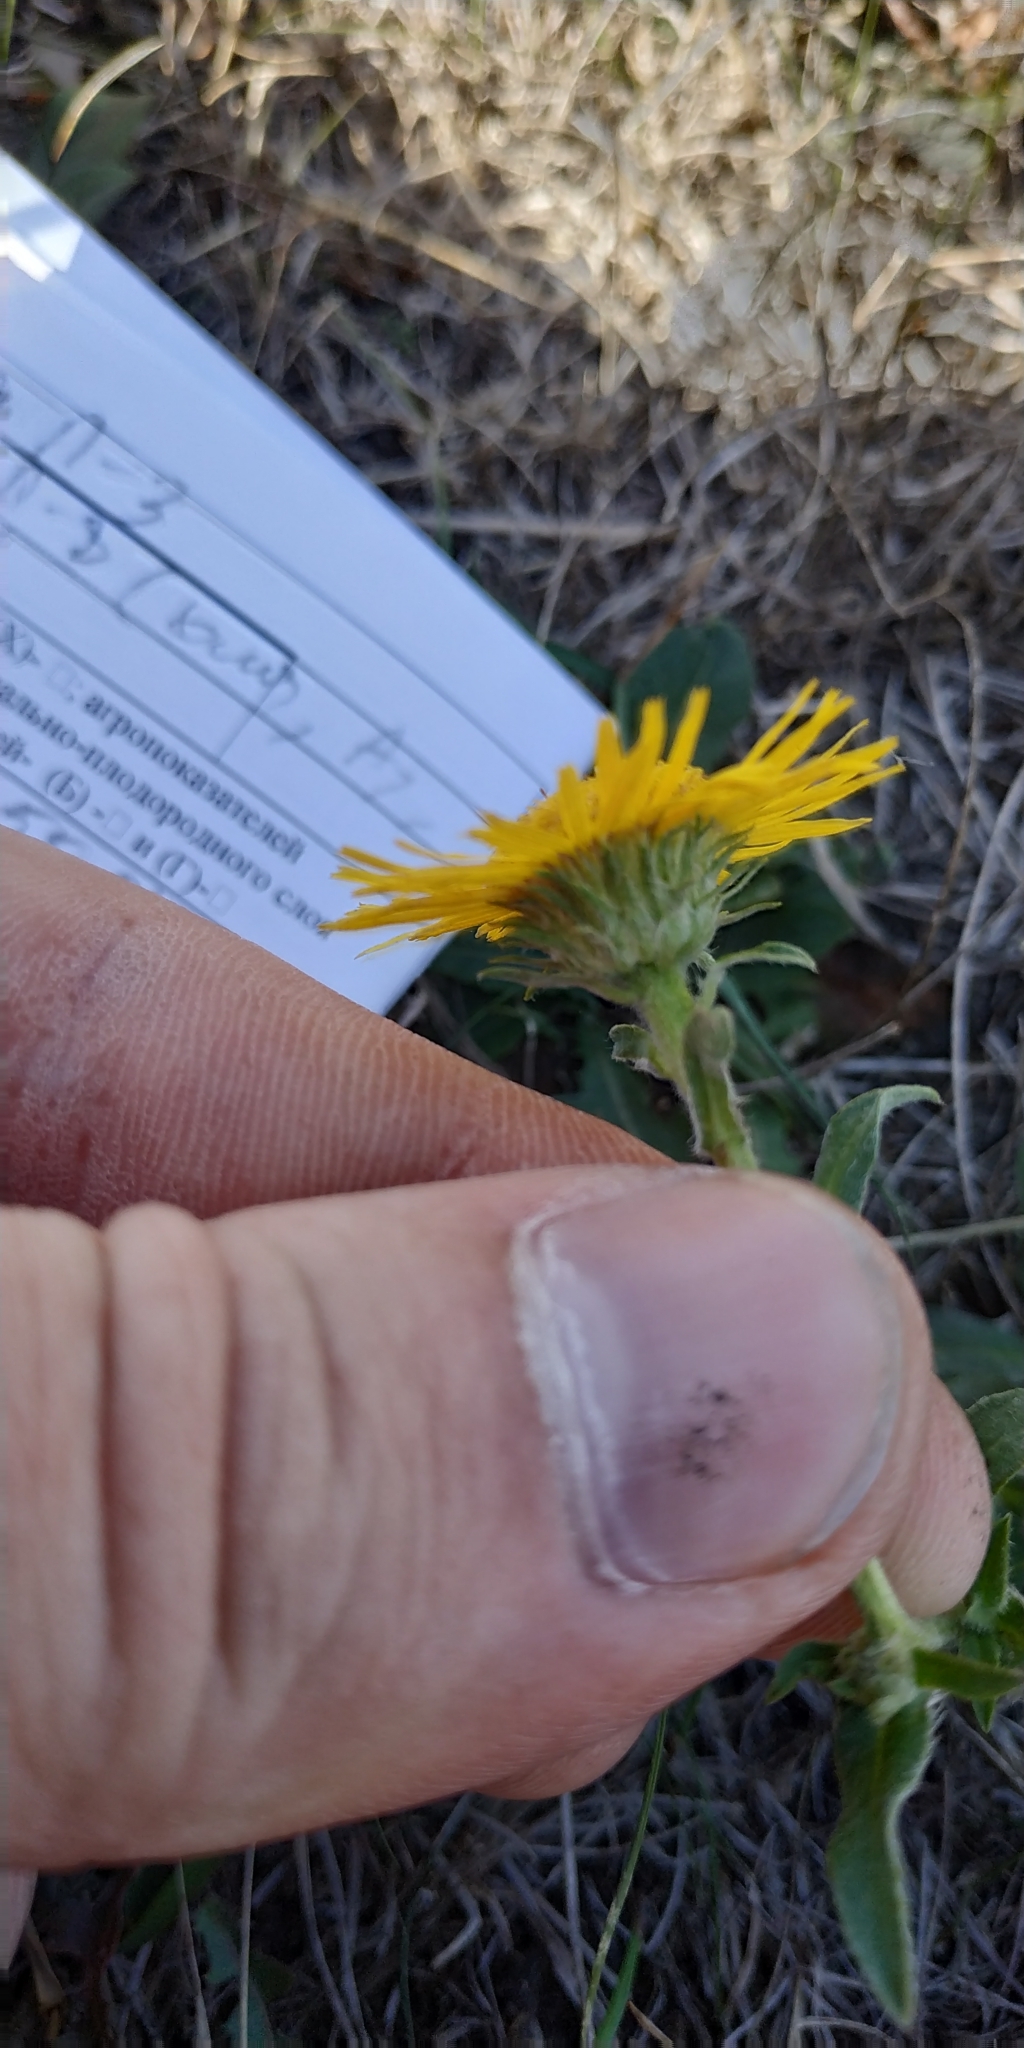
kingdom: Plantae
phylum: Tracheophyta
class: Magnoliopsida
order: Asterales
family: Asteraceae
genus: Pentanema
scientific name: Pentanema britannicum
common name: British elecampane
